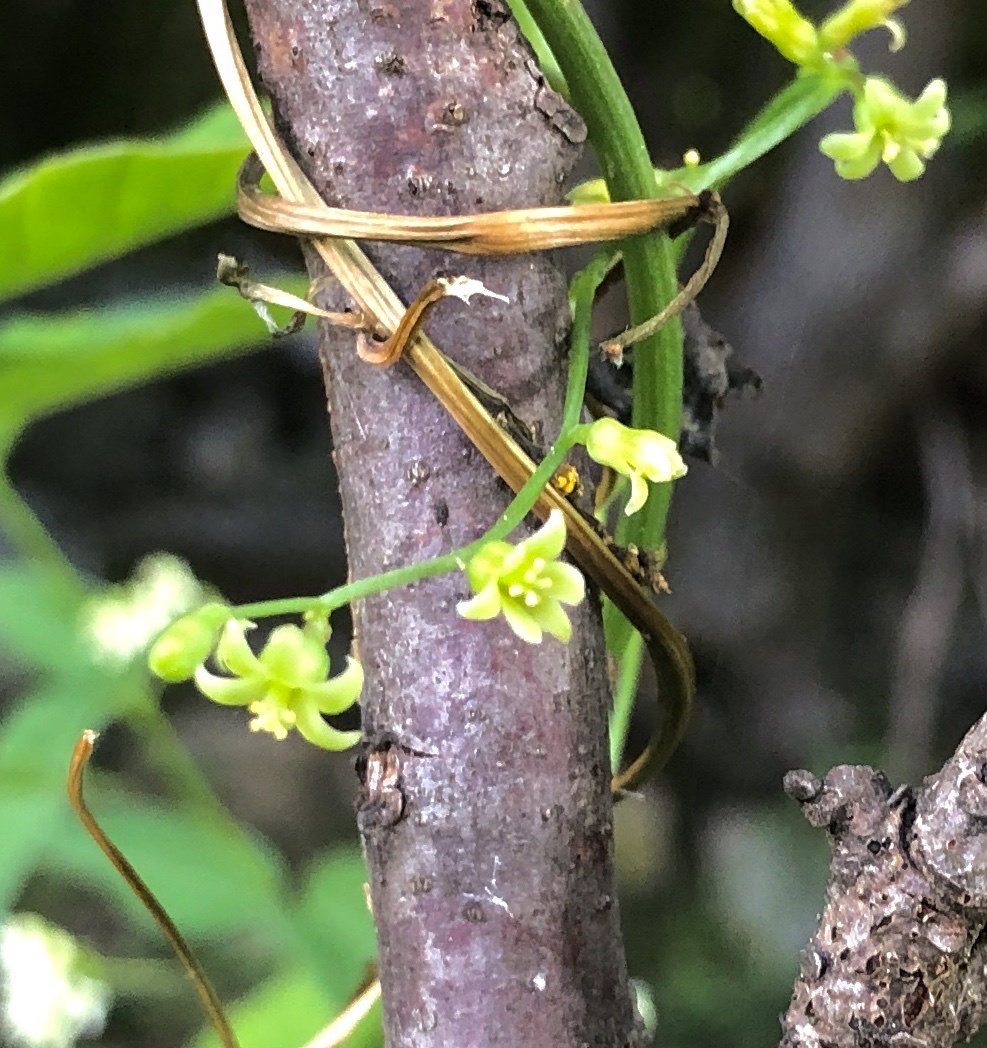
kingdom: Plantae
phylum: Tracheophyta
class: Liliopsida
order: Dioscoreales
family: Dioscoreaceae
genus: Dioscorea
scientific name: Dioscorea communis
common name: Black-bindweed
